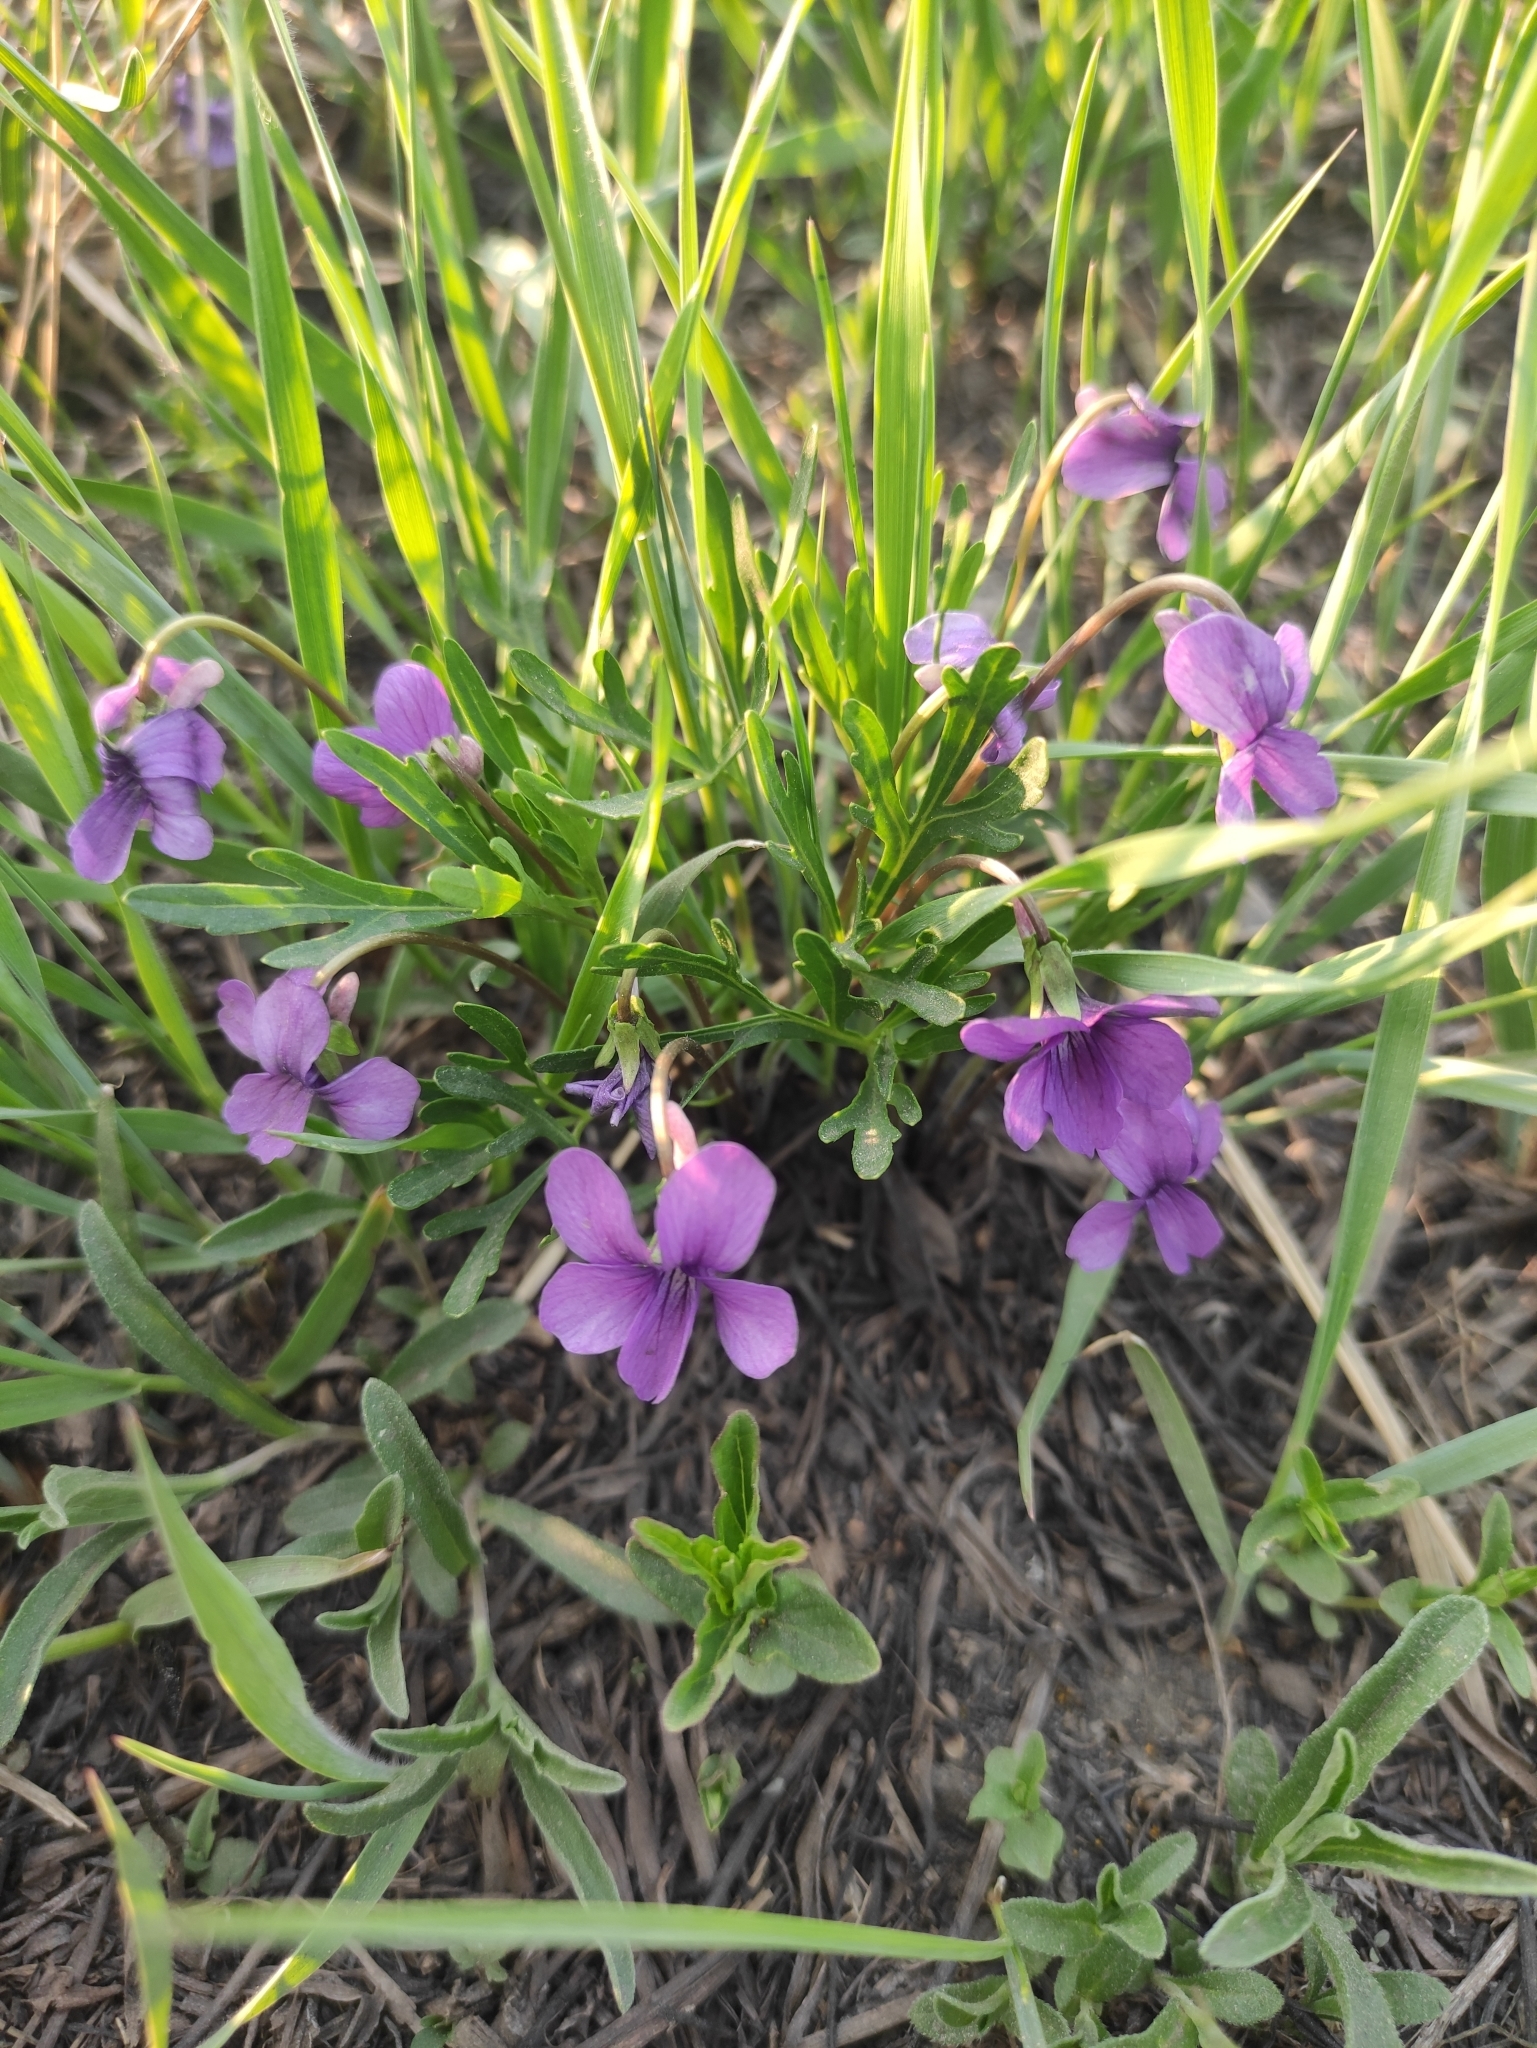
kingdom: Plantae
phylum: Tracheophyta
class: Magnoliopsida
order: Malpighiales
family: Violaceae
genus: Viola
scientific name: Viola multifida
